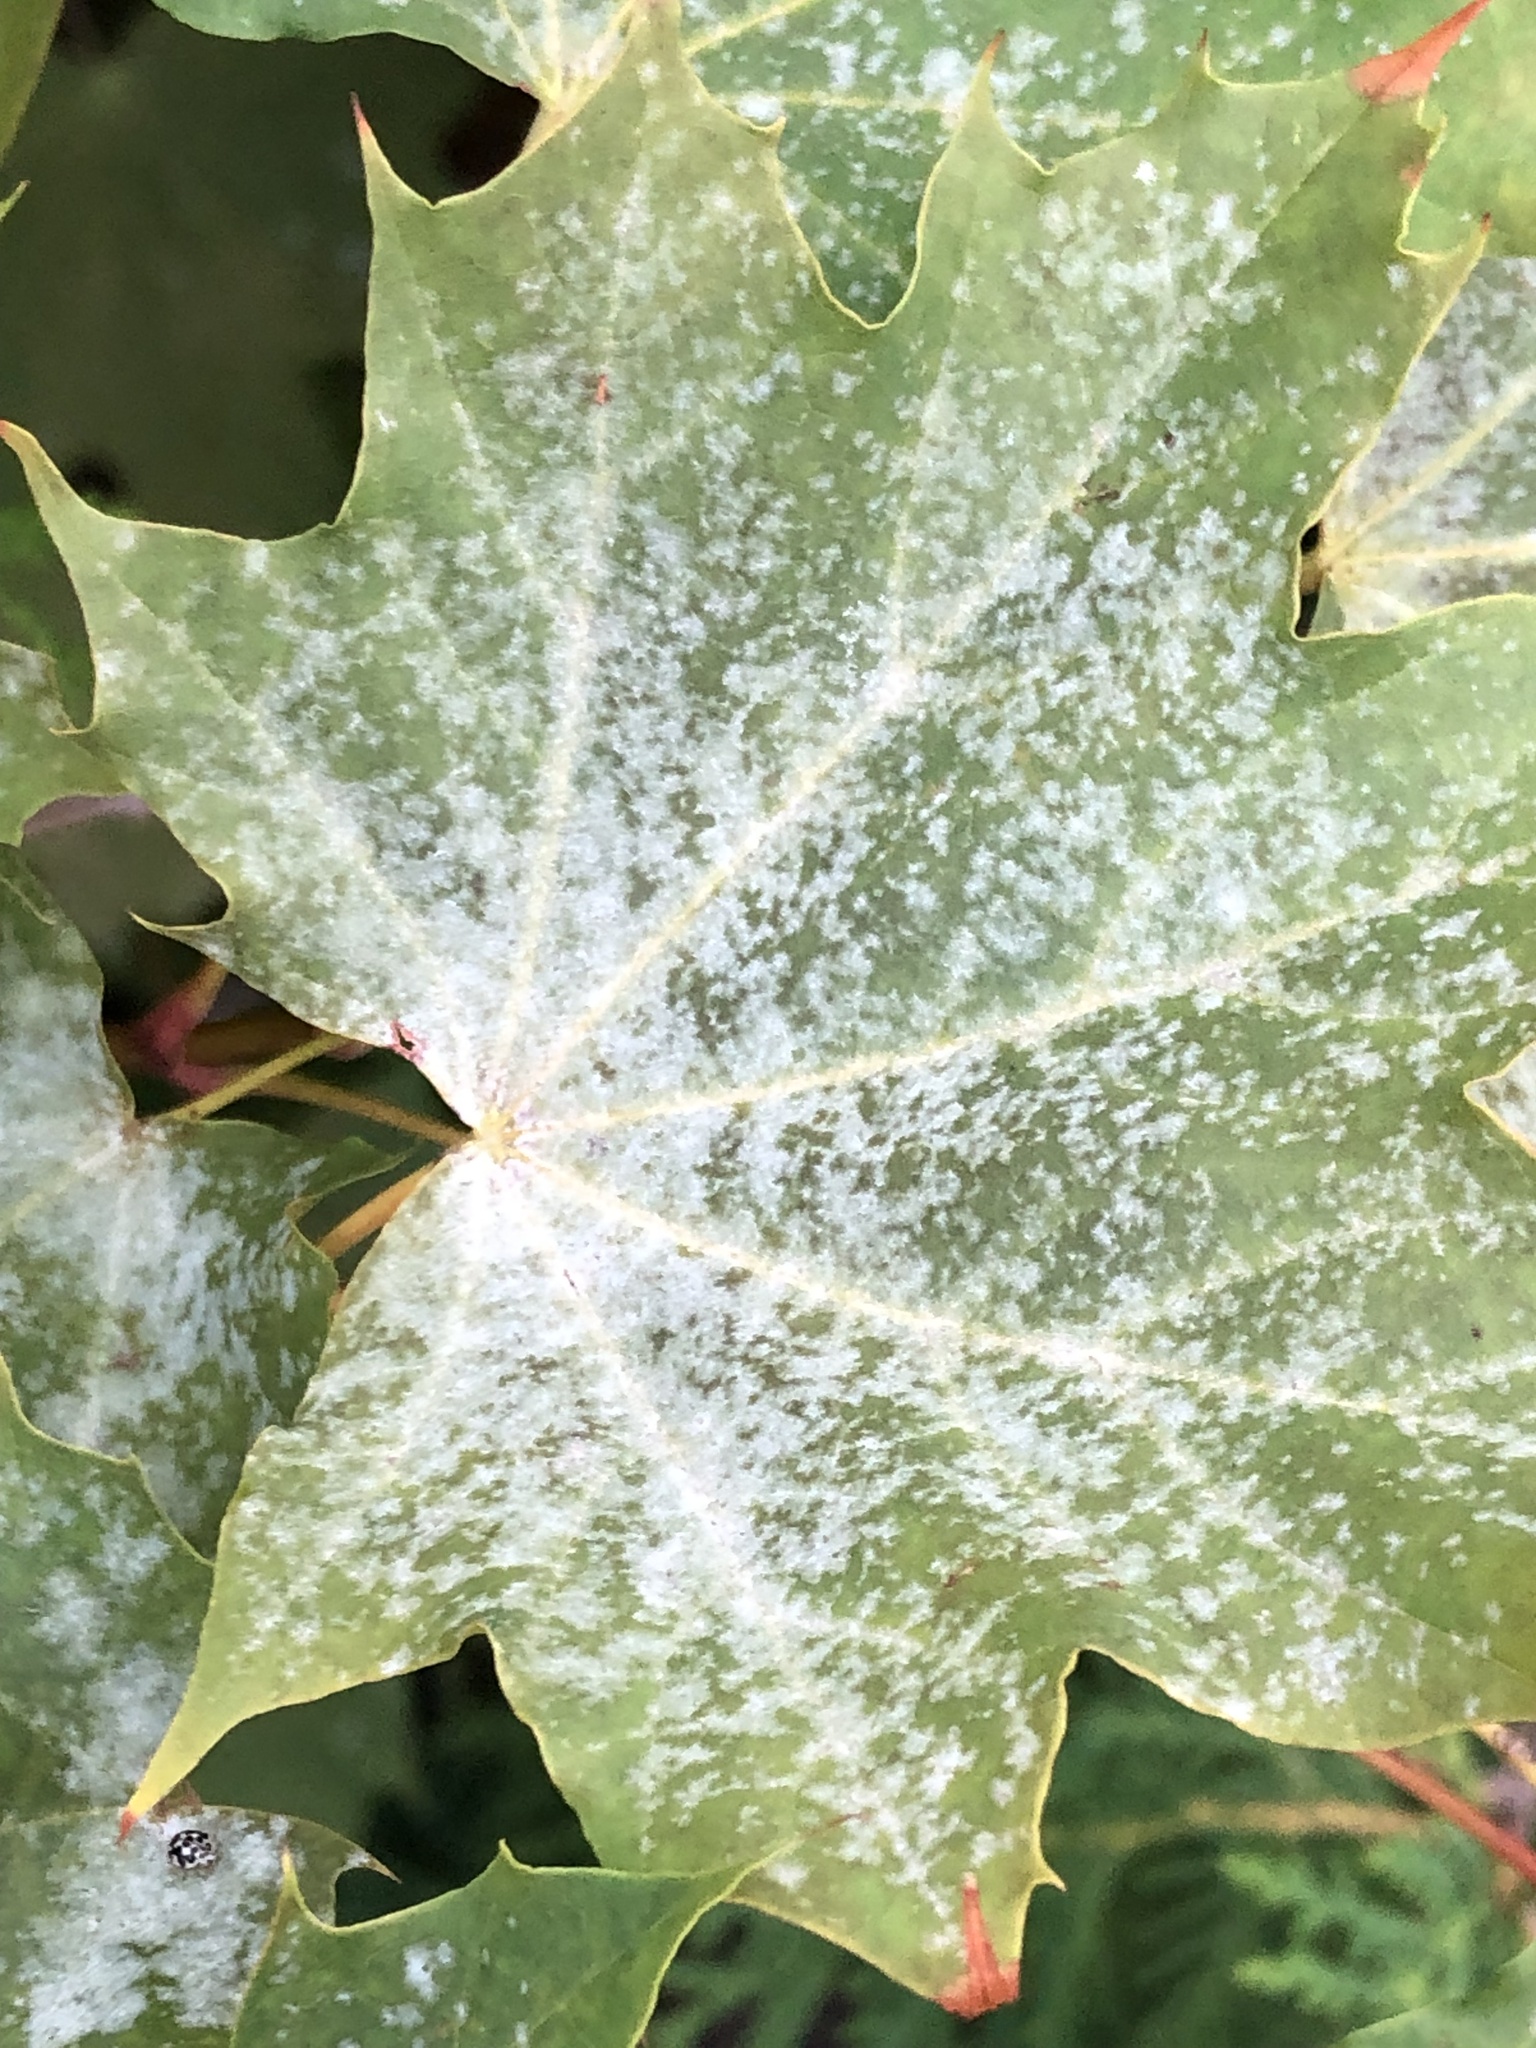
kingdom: Fungi
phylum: Ascomycota
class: Leotiomycetes
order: Helotiales
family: Erysiphaceae
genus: Sawadaea
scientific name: Sawadaea tulasnei
